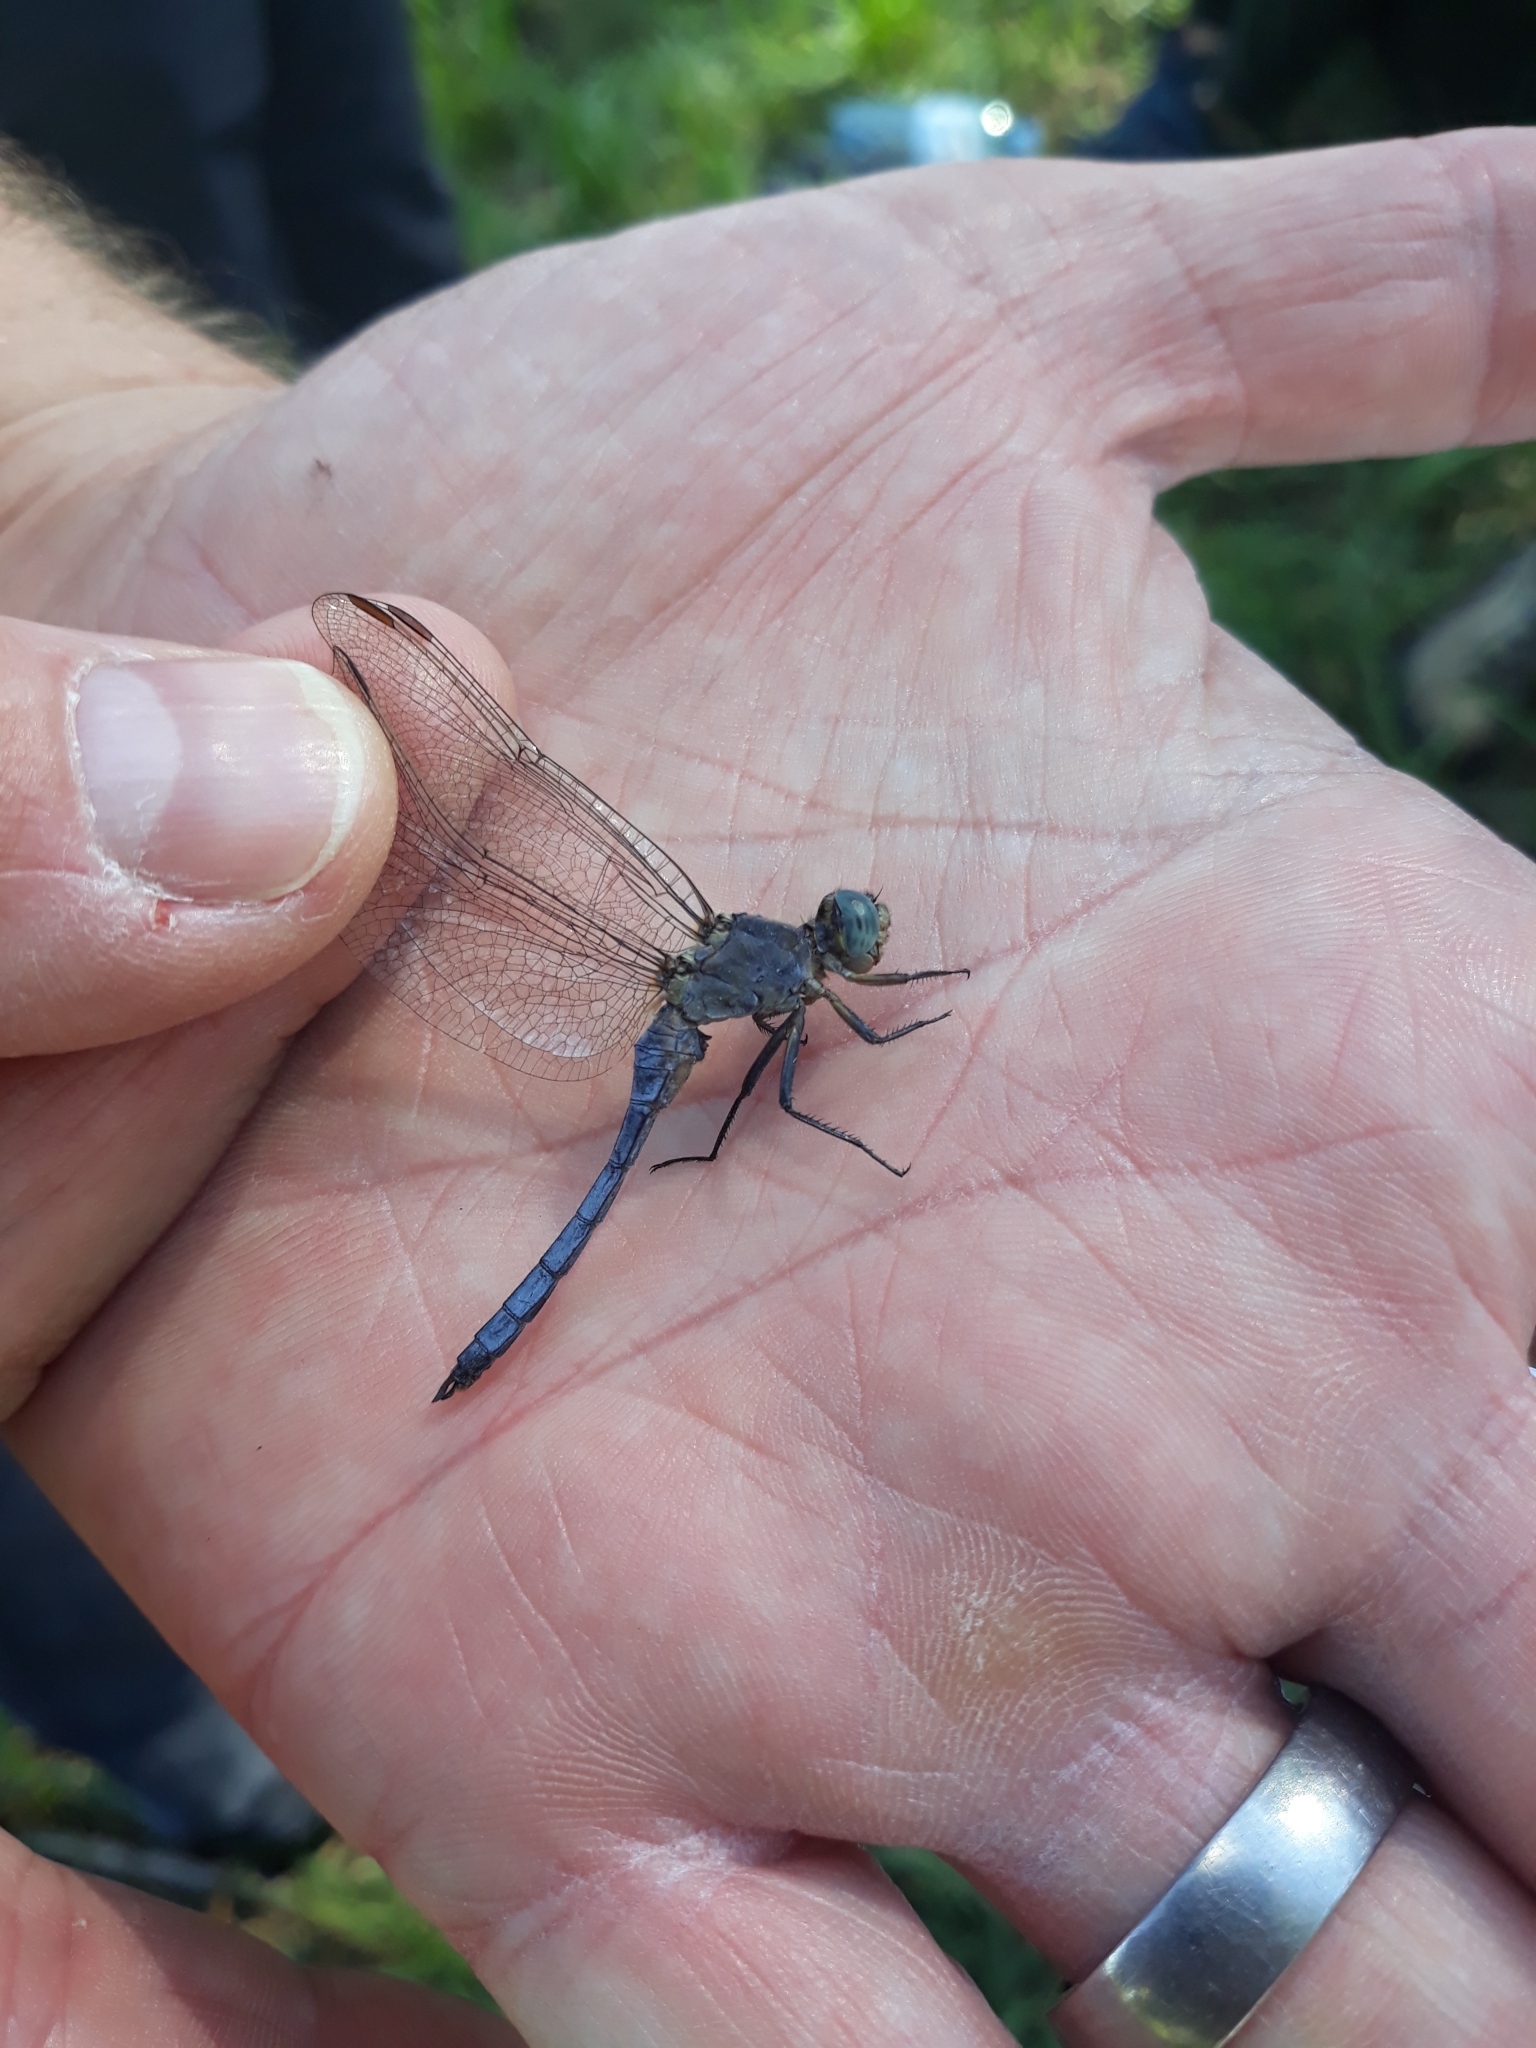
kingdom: Animalia
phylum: Arthropoda
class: Insecta
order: Odonata
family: Libellulidae
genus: Orthetrum
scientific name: Orthetrum coerulescens
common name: Keeled skimmer
